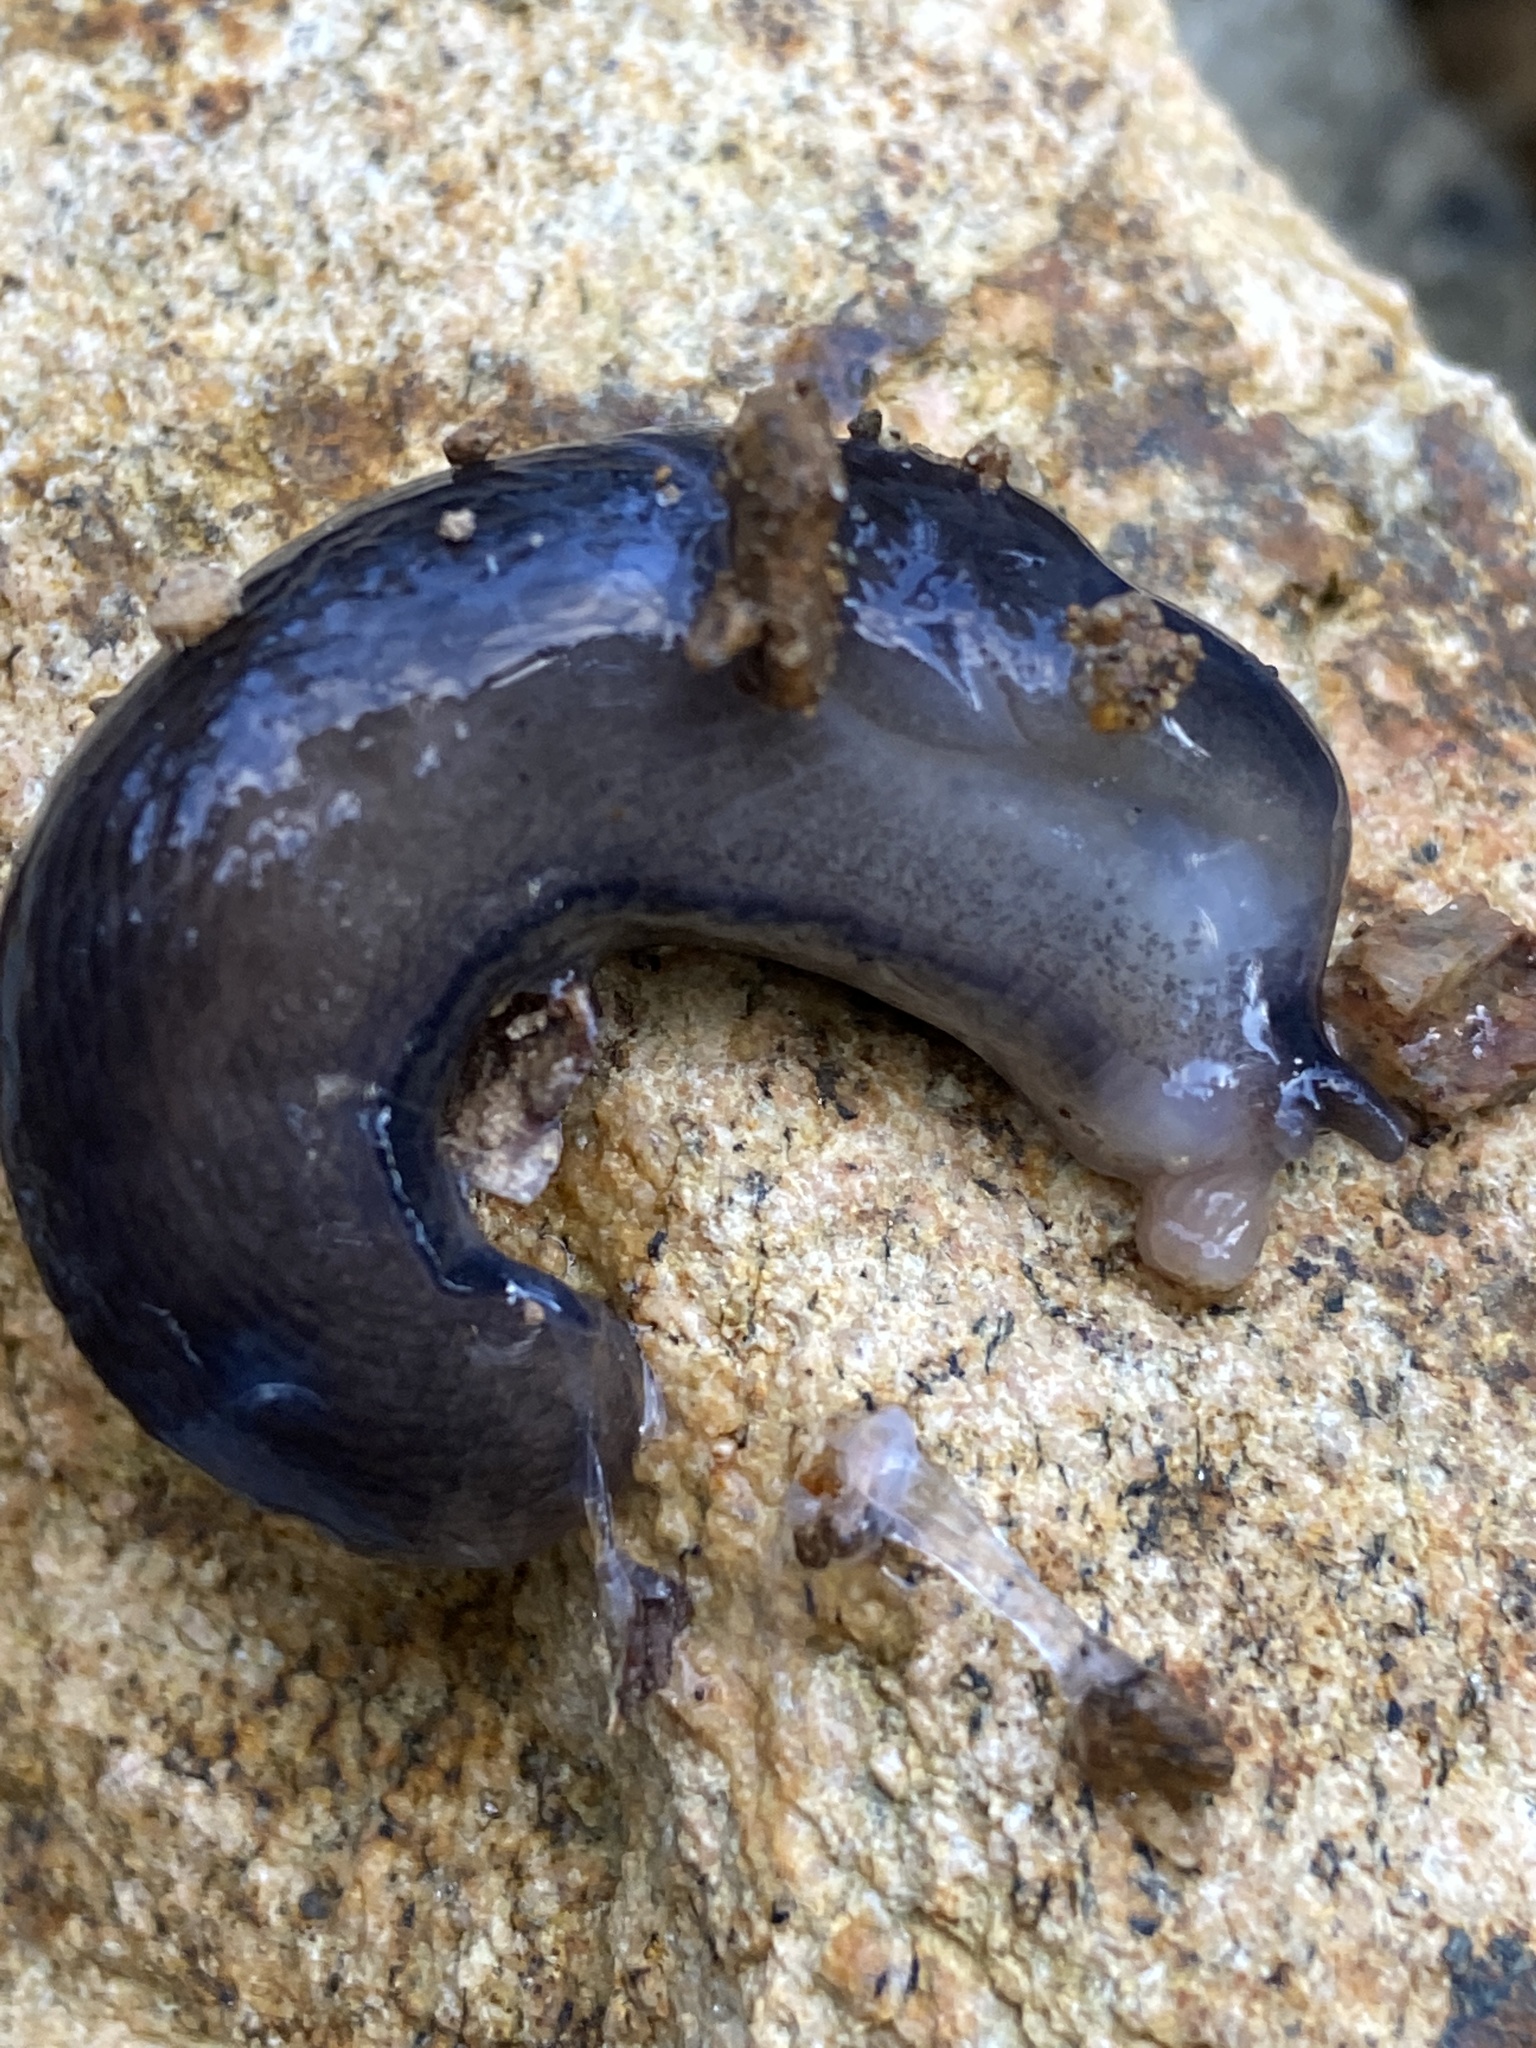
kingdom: Animalia
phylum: Mollusca
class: Gastropoda
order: Stylommatophora
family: Limacidae
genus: Limax
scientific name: Limax cinereoniger
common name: Ash-black slug
